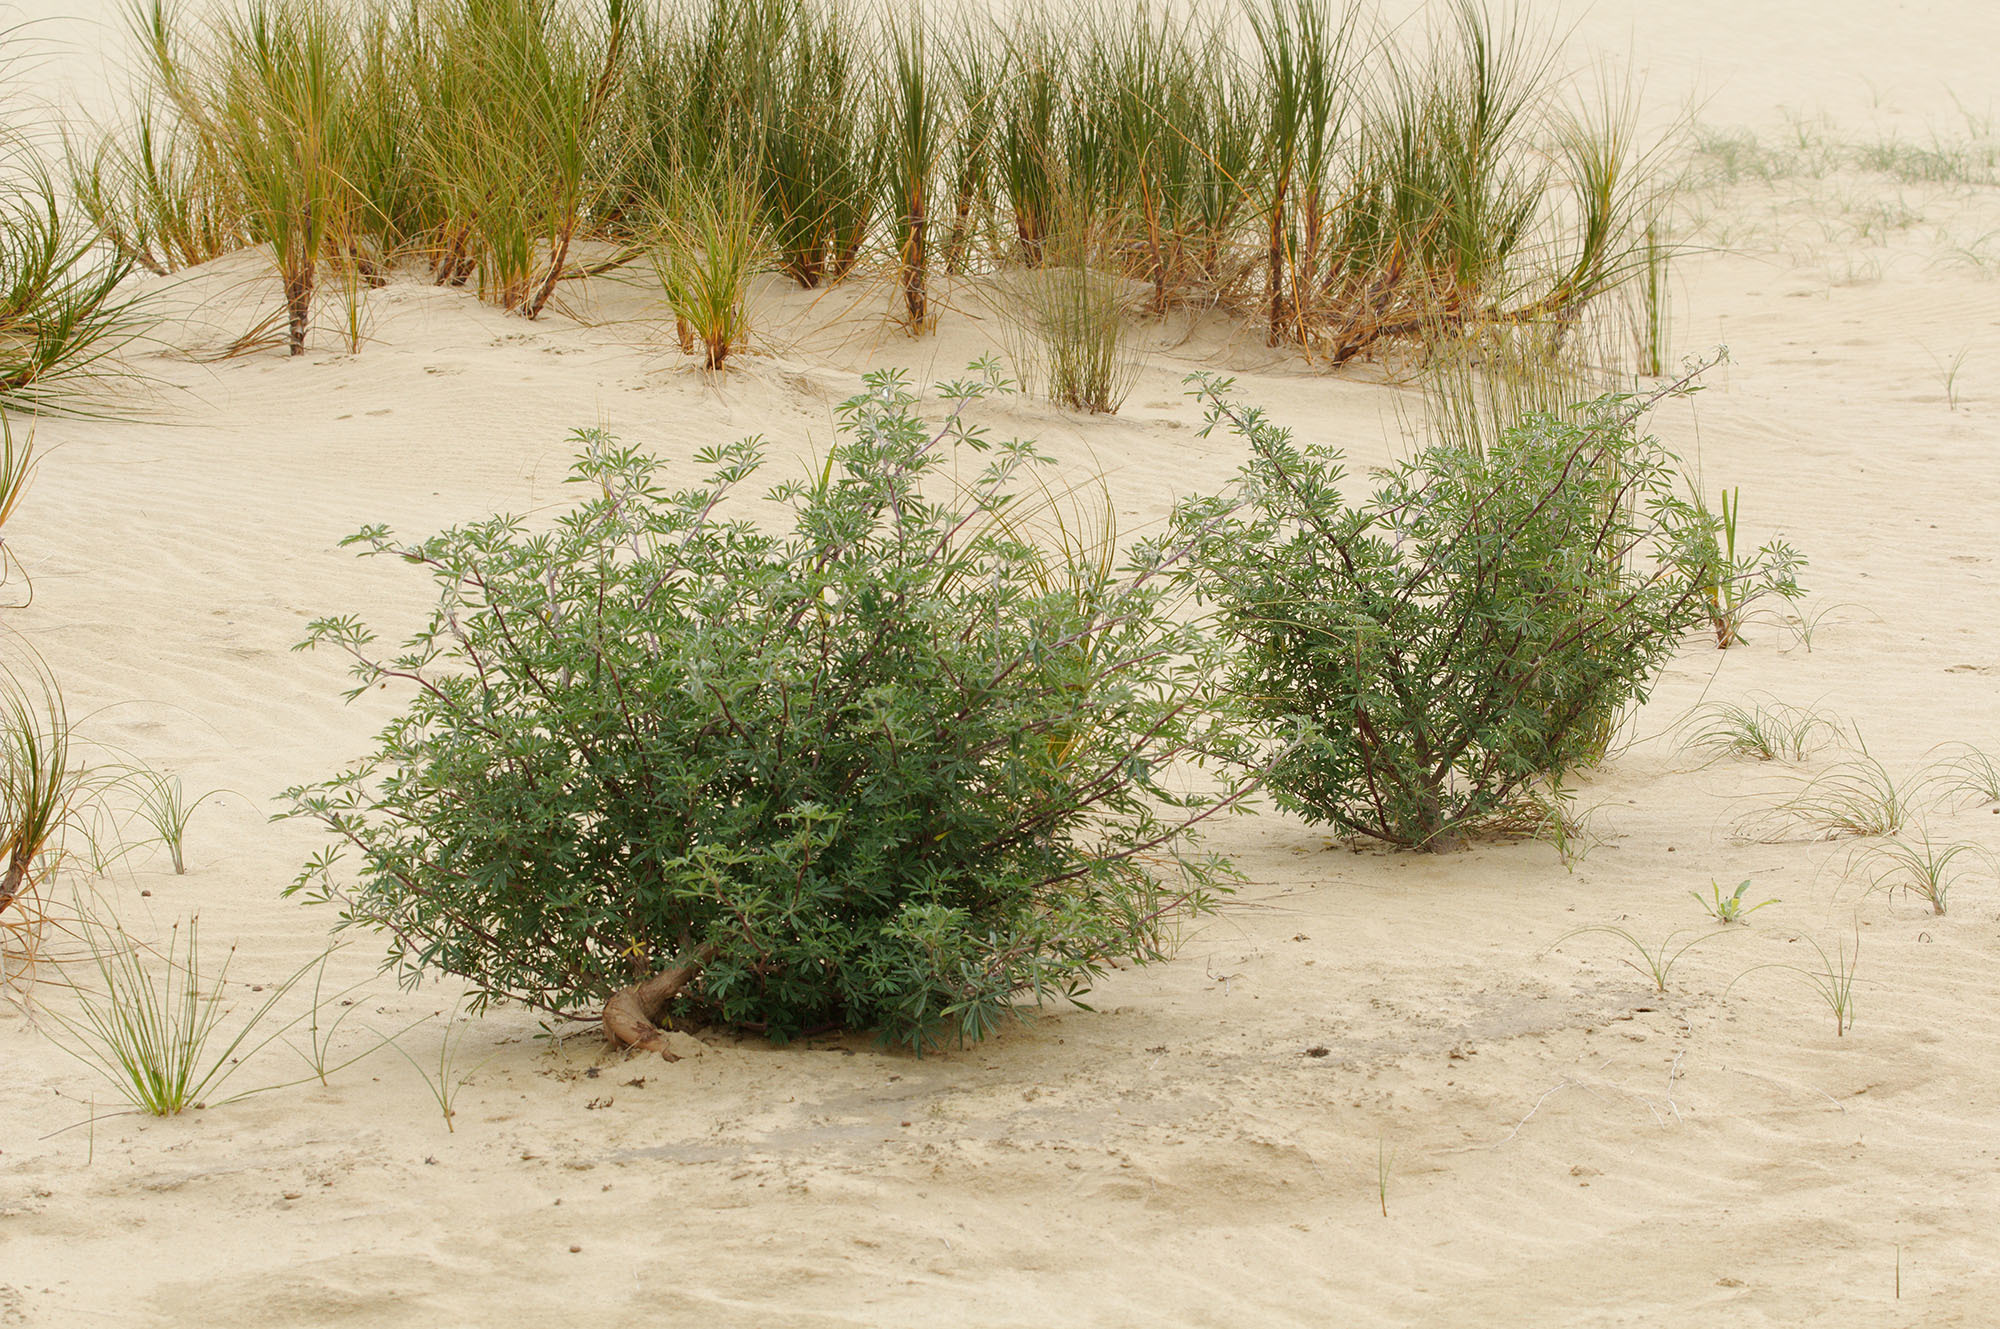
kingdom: Plantae
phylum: Tracheophyta
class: Magnoliopsida
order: Fabales
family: Fabaceae
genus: Lupinus
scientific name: Lupinus arboreus
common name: Yellow bush lupine
